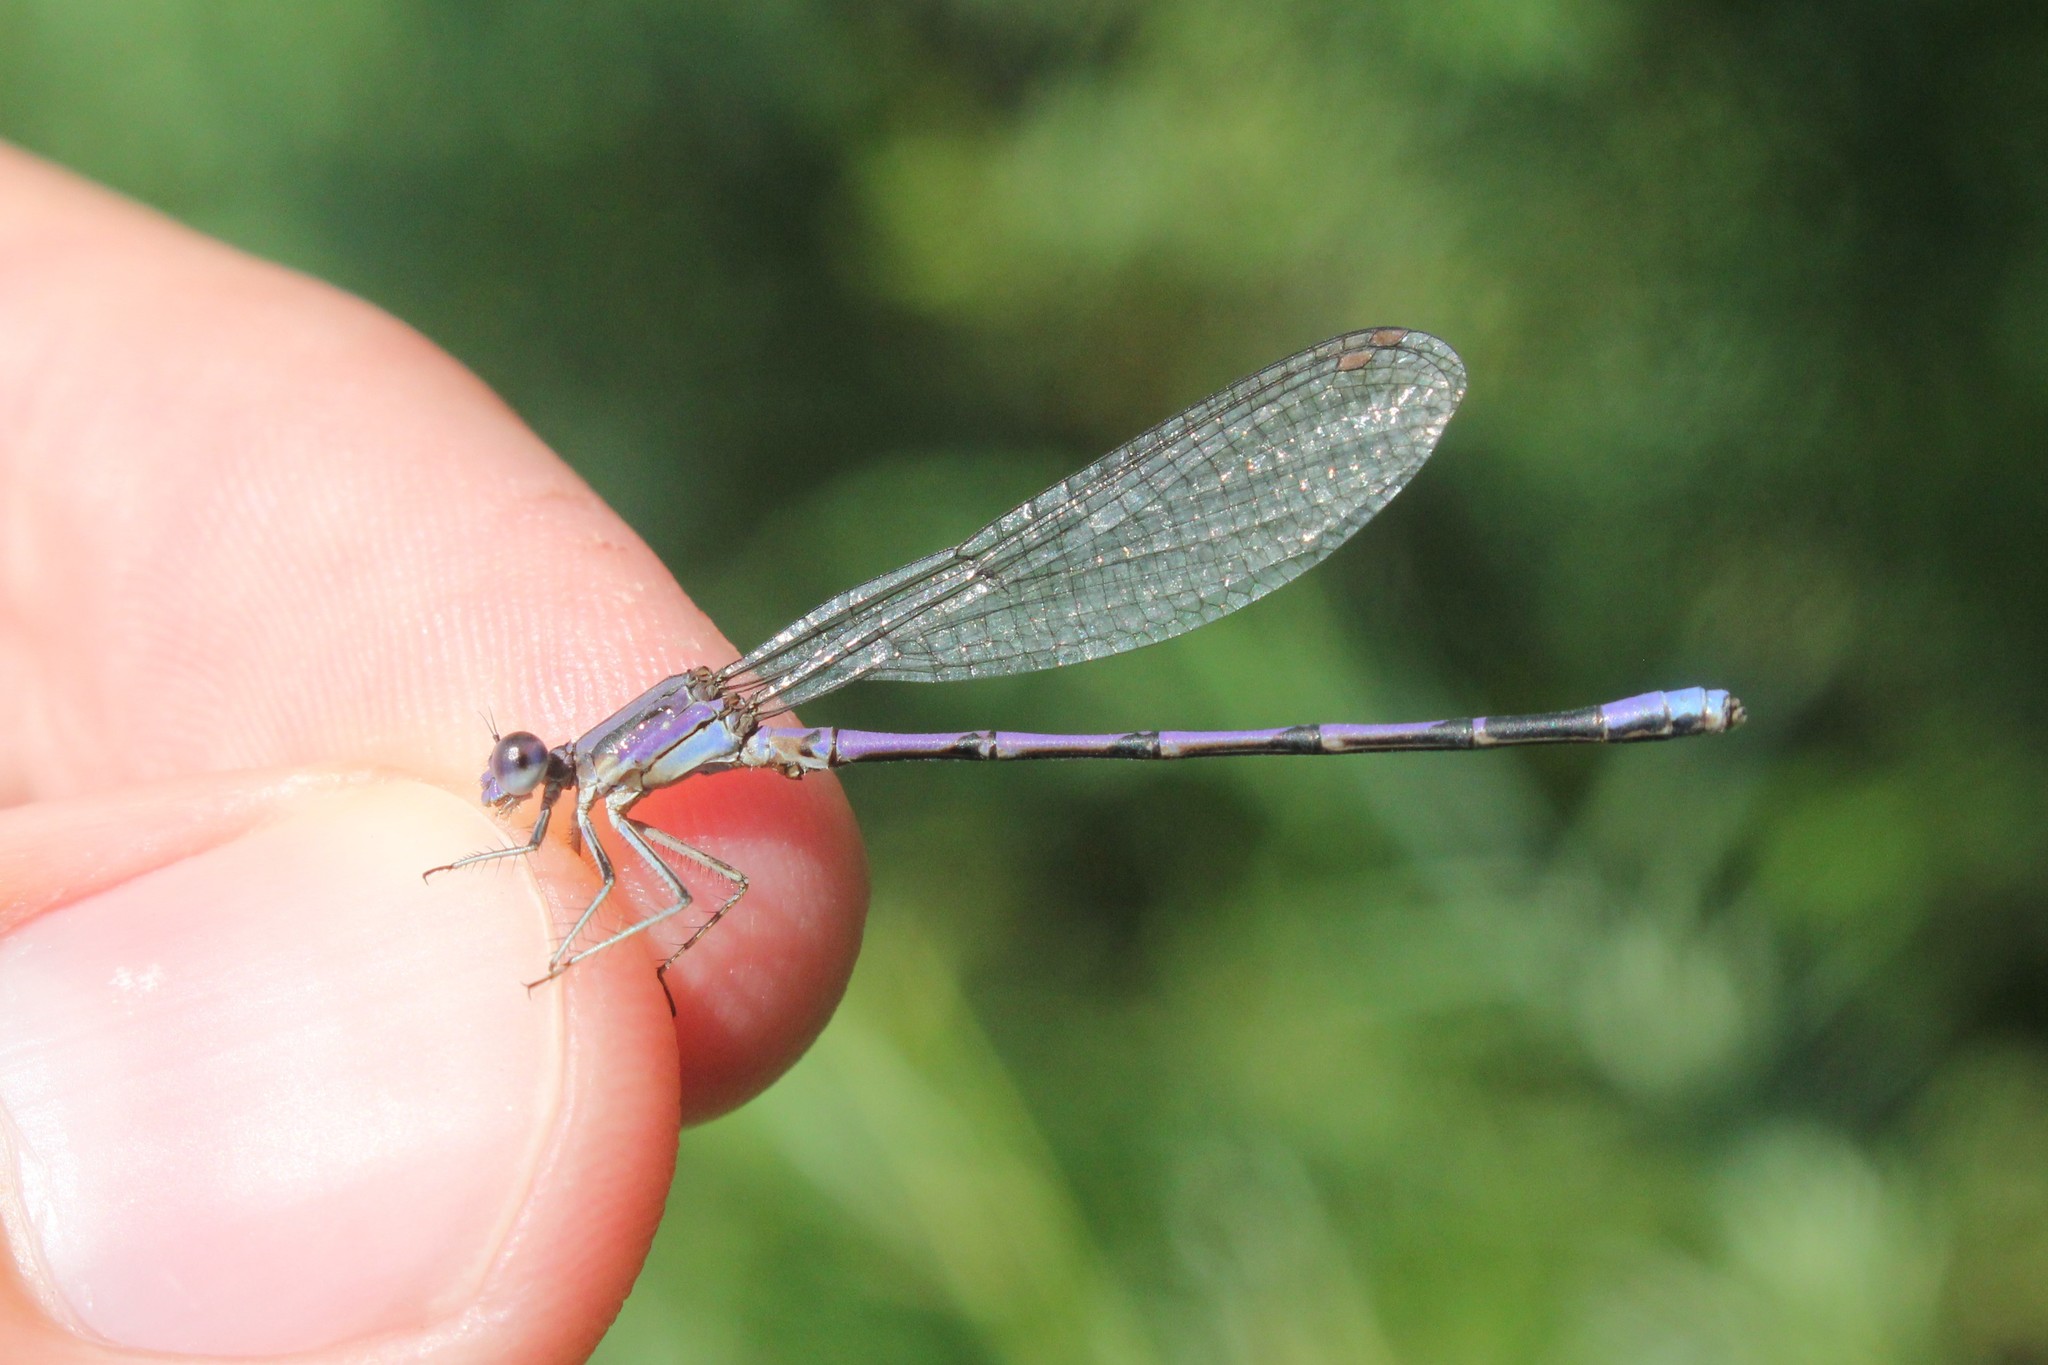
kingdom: Animalia
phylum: Arthropoda
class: Insecta
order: Odonata
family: Coenagrionidae
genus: Argia
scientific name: Argia fumipennis
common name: Variable dancer
